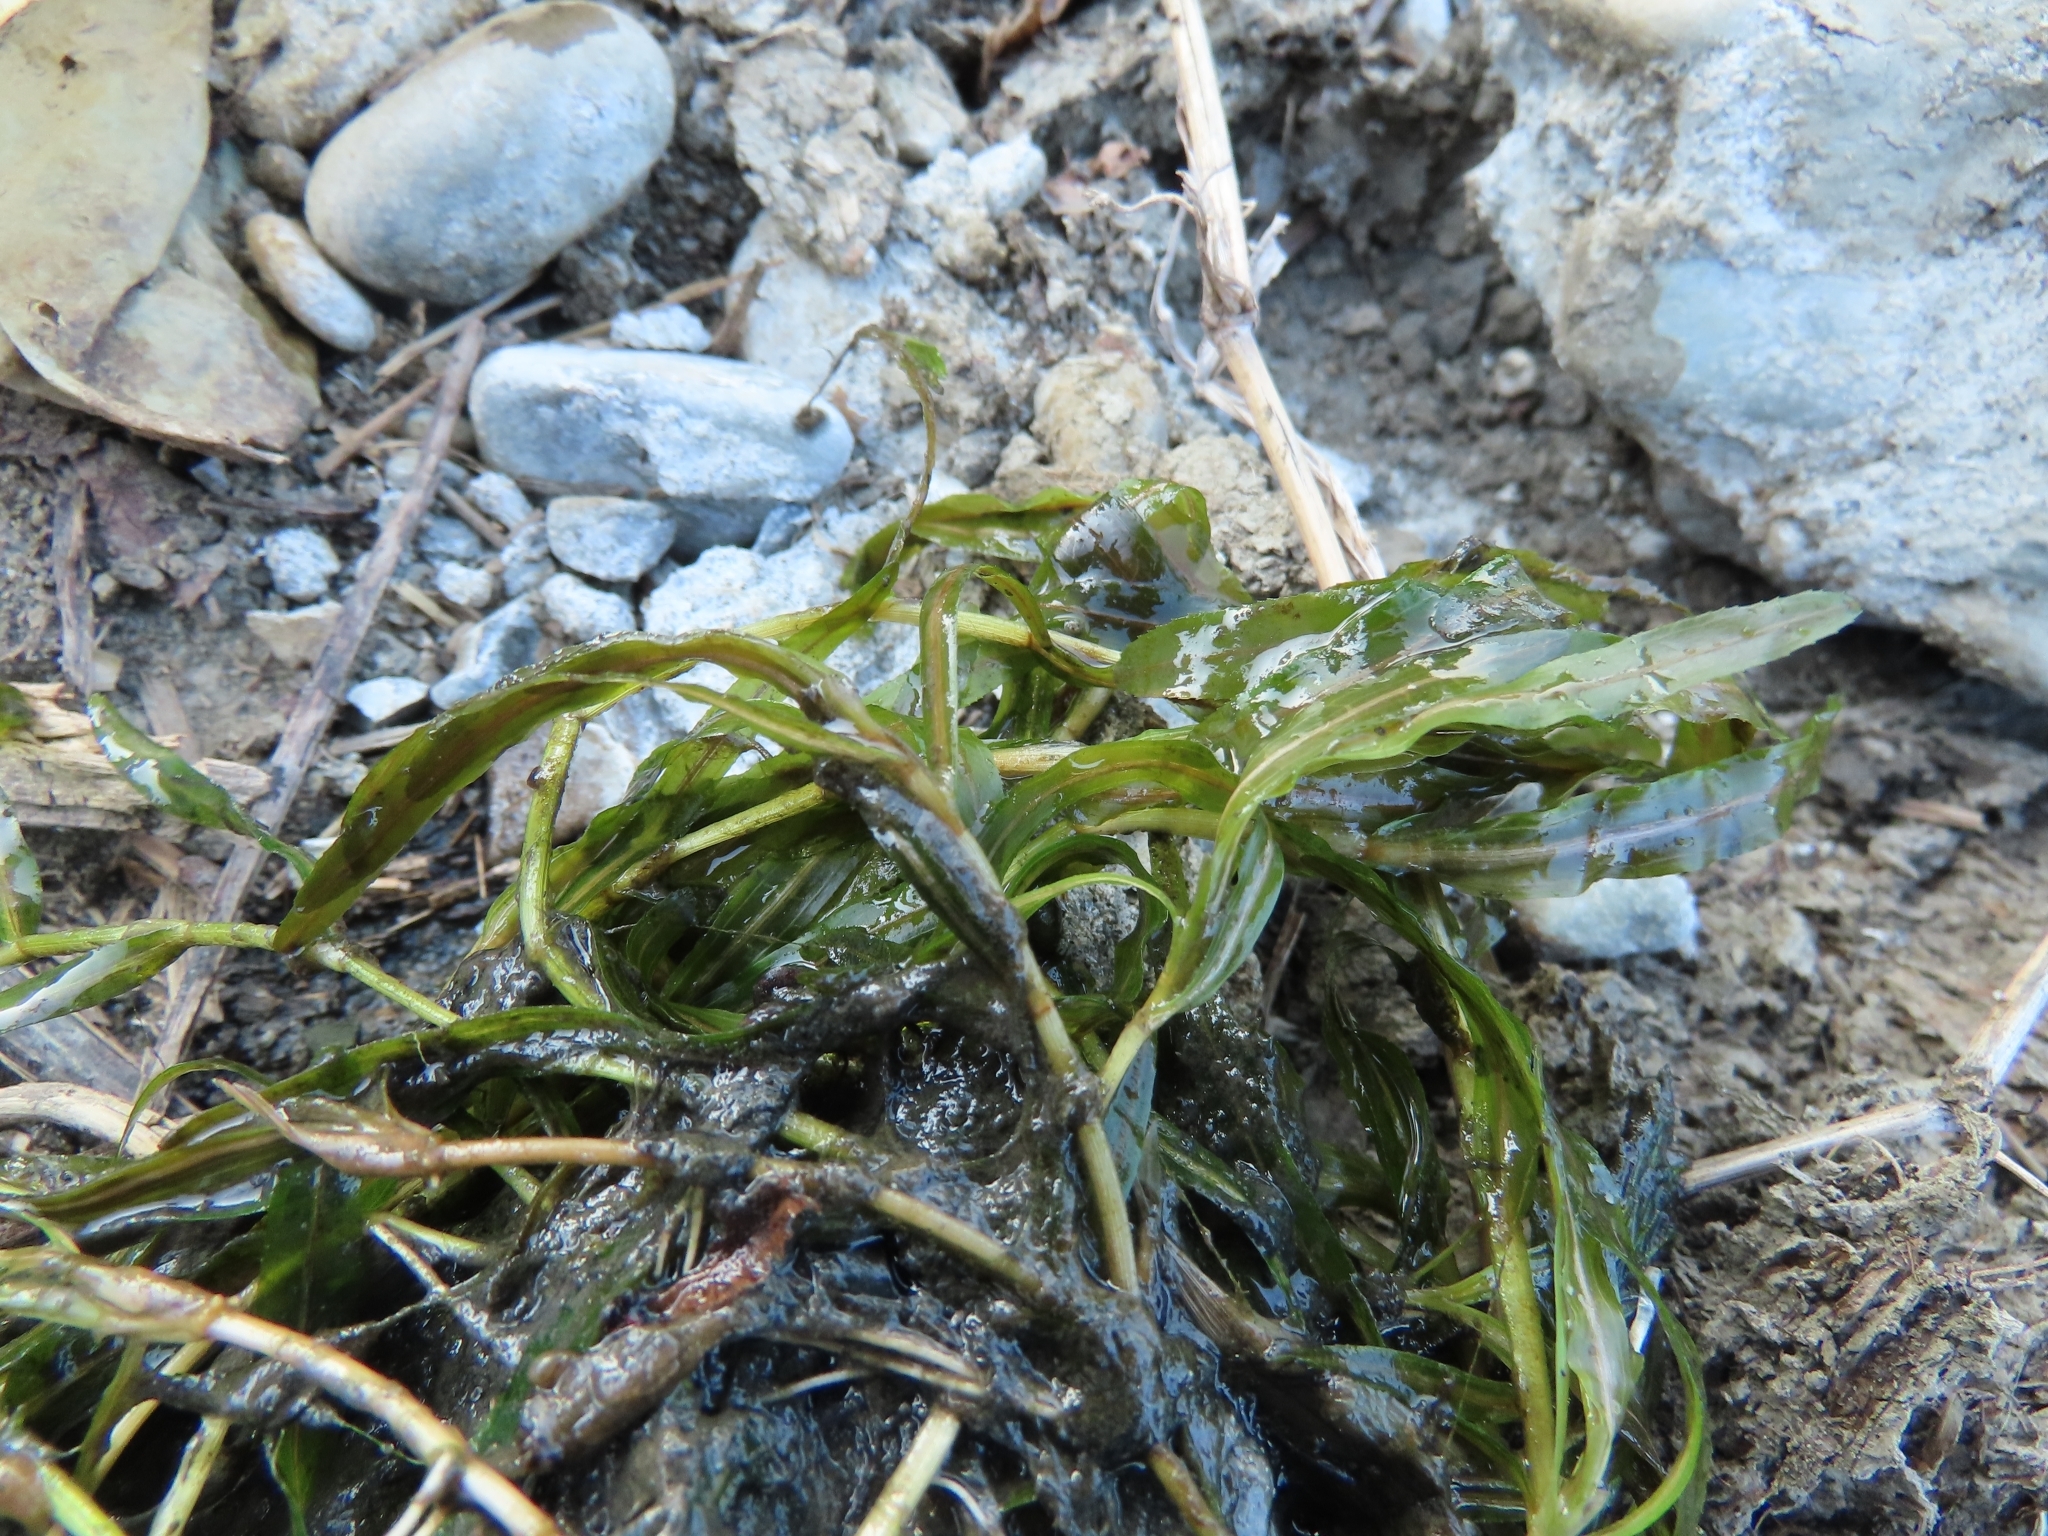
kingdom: Plantae
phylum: Tracheophyta
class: Liliopsida
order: Alismatales
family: Potamogetonaceae
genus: Potamogeton
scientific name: Potamogeton crispus
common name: Curled pondweed
